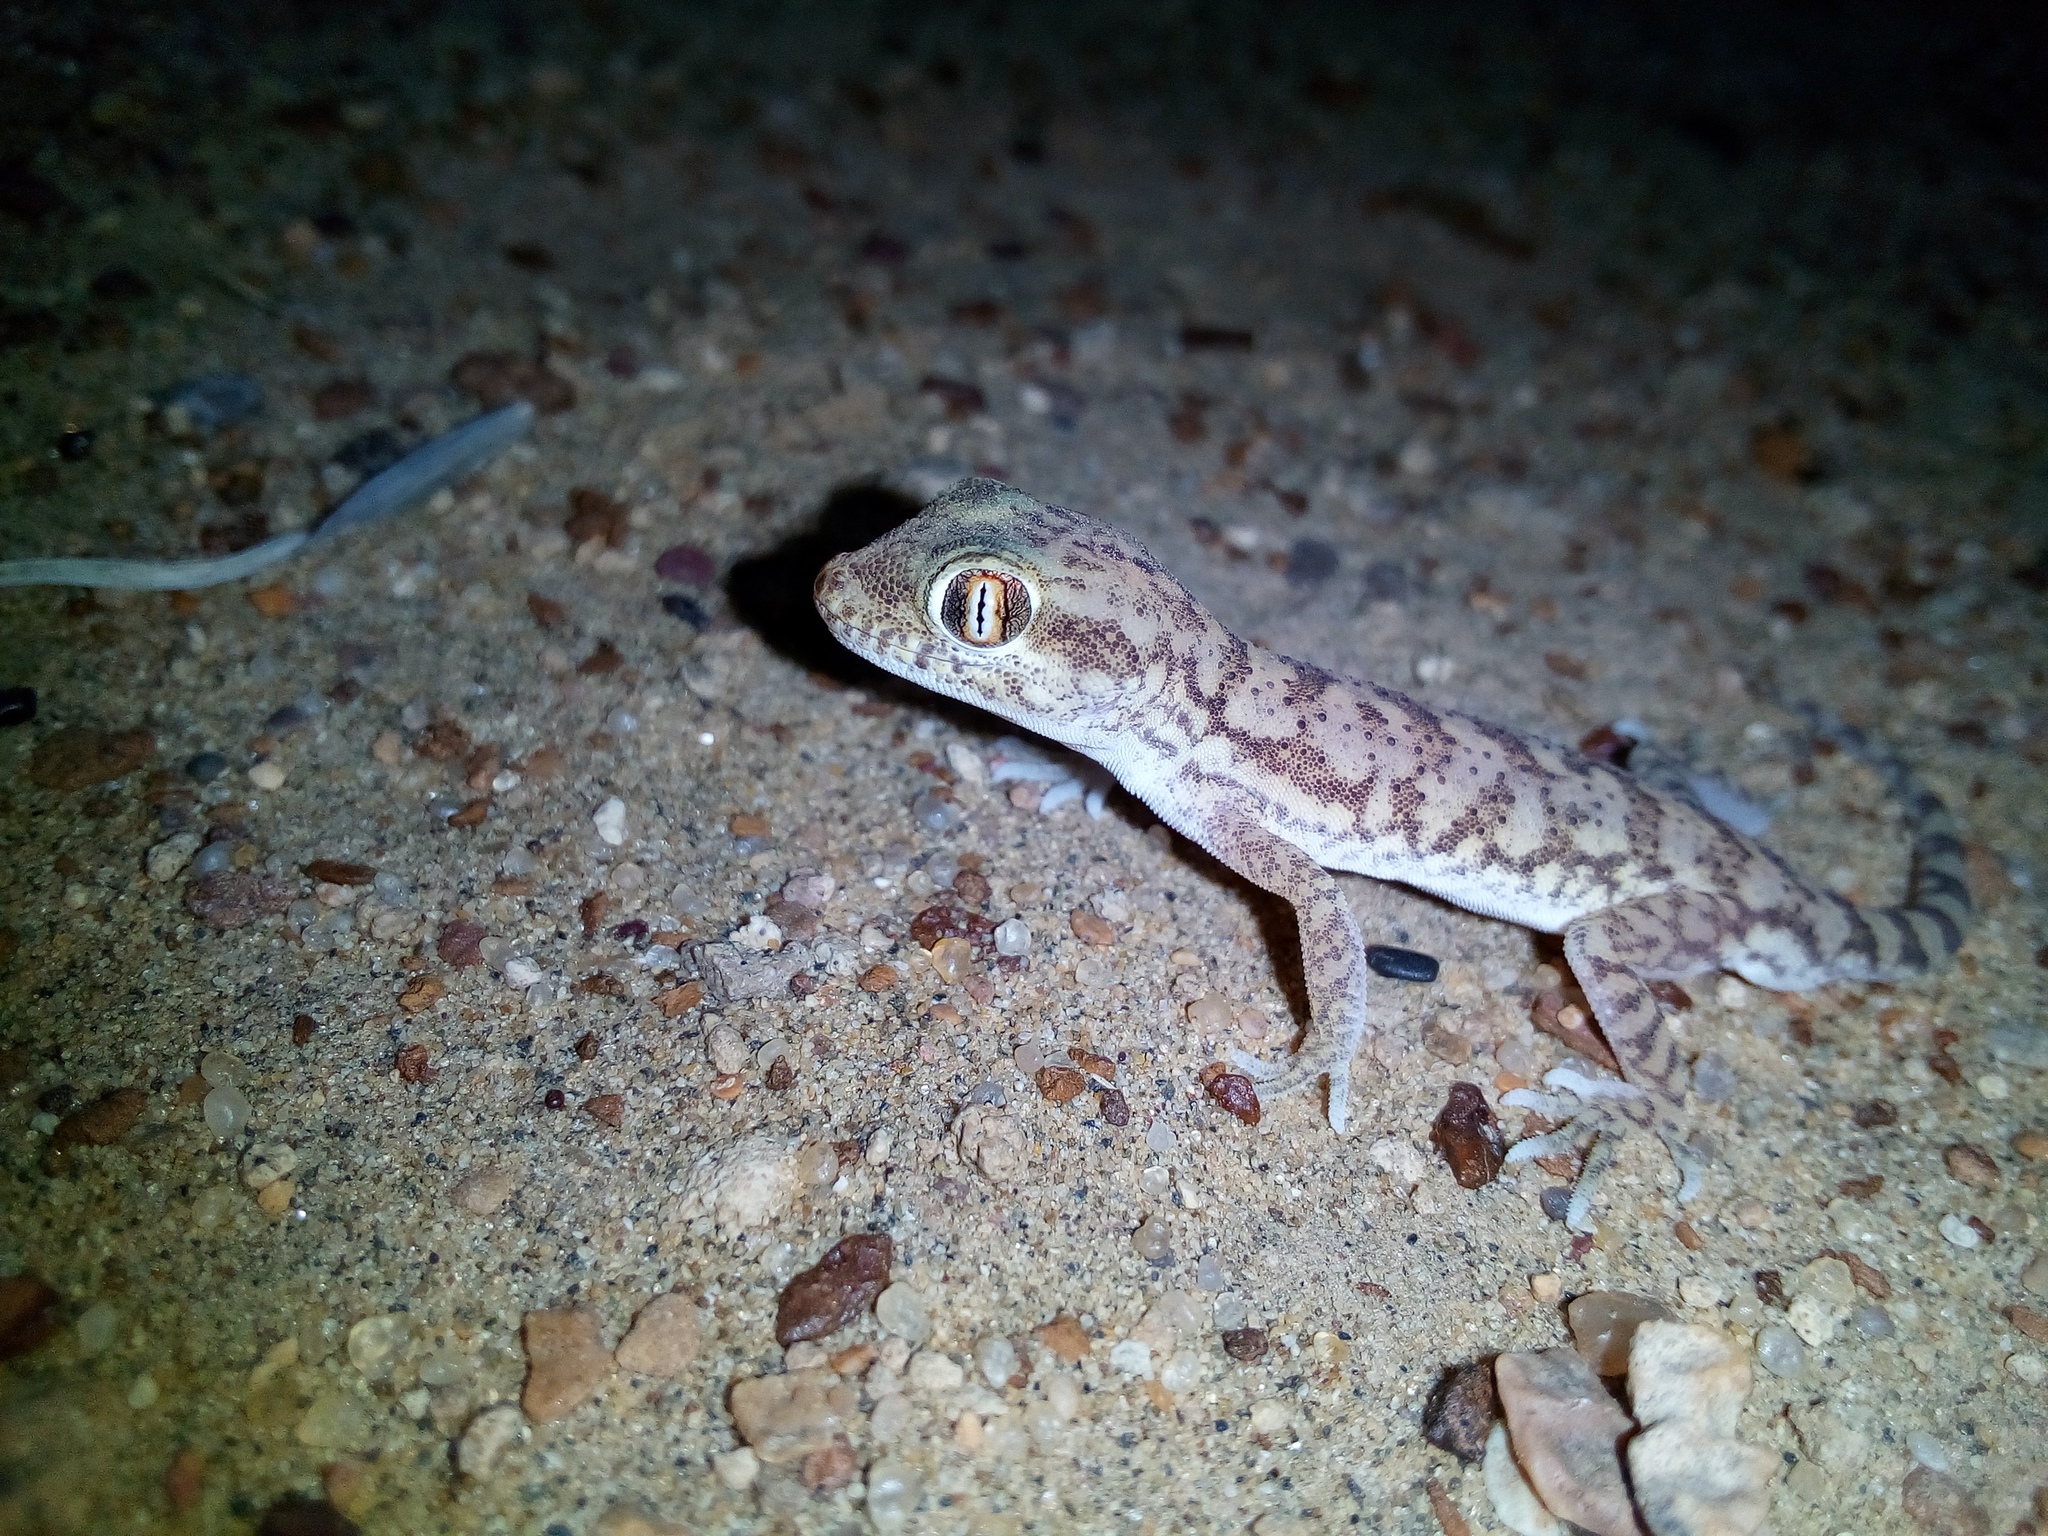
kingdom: Animalia
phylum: Chordata
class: Squamata
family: Gekkonidae
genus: Crossobamon
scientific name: Crossobamon orientalis
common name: Sind gecko
